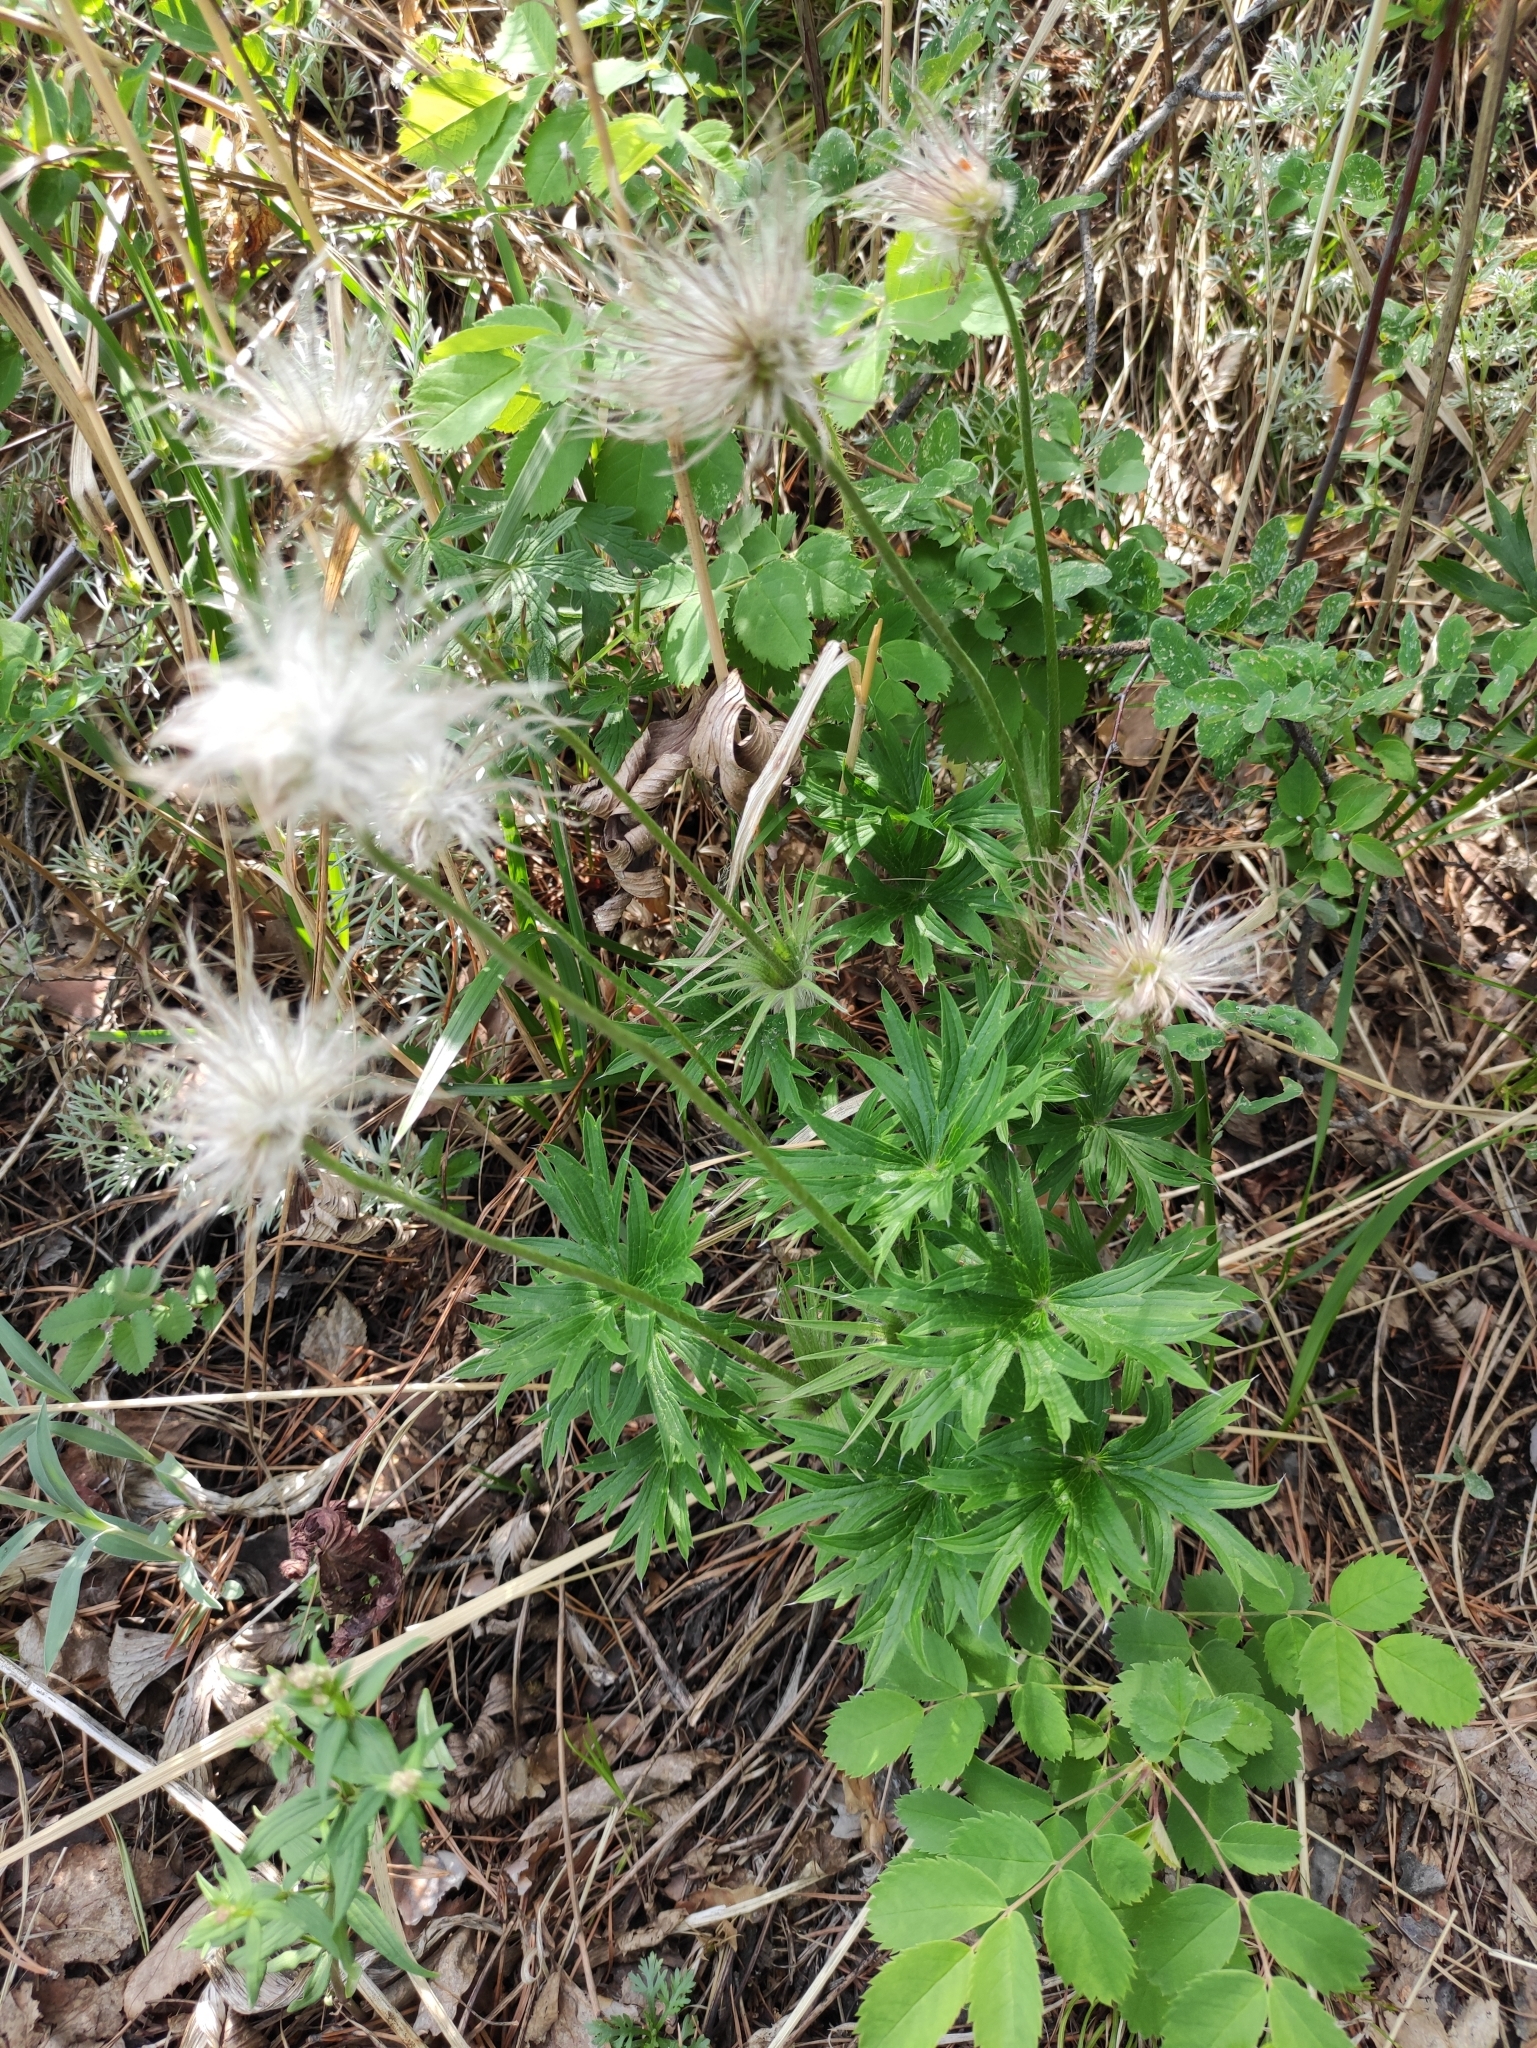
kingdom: Plantae
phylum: Tracheophyta
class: Magnoliopsida
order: Ranunculales
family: Ranunculaceae
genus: Pulsatilla
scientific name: Pulsatilla patens
